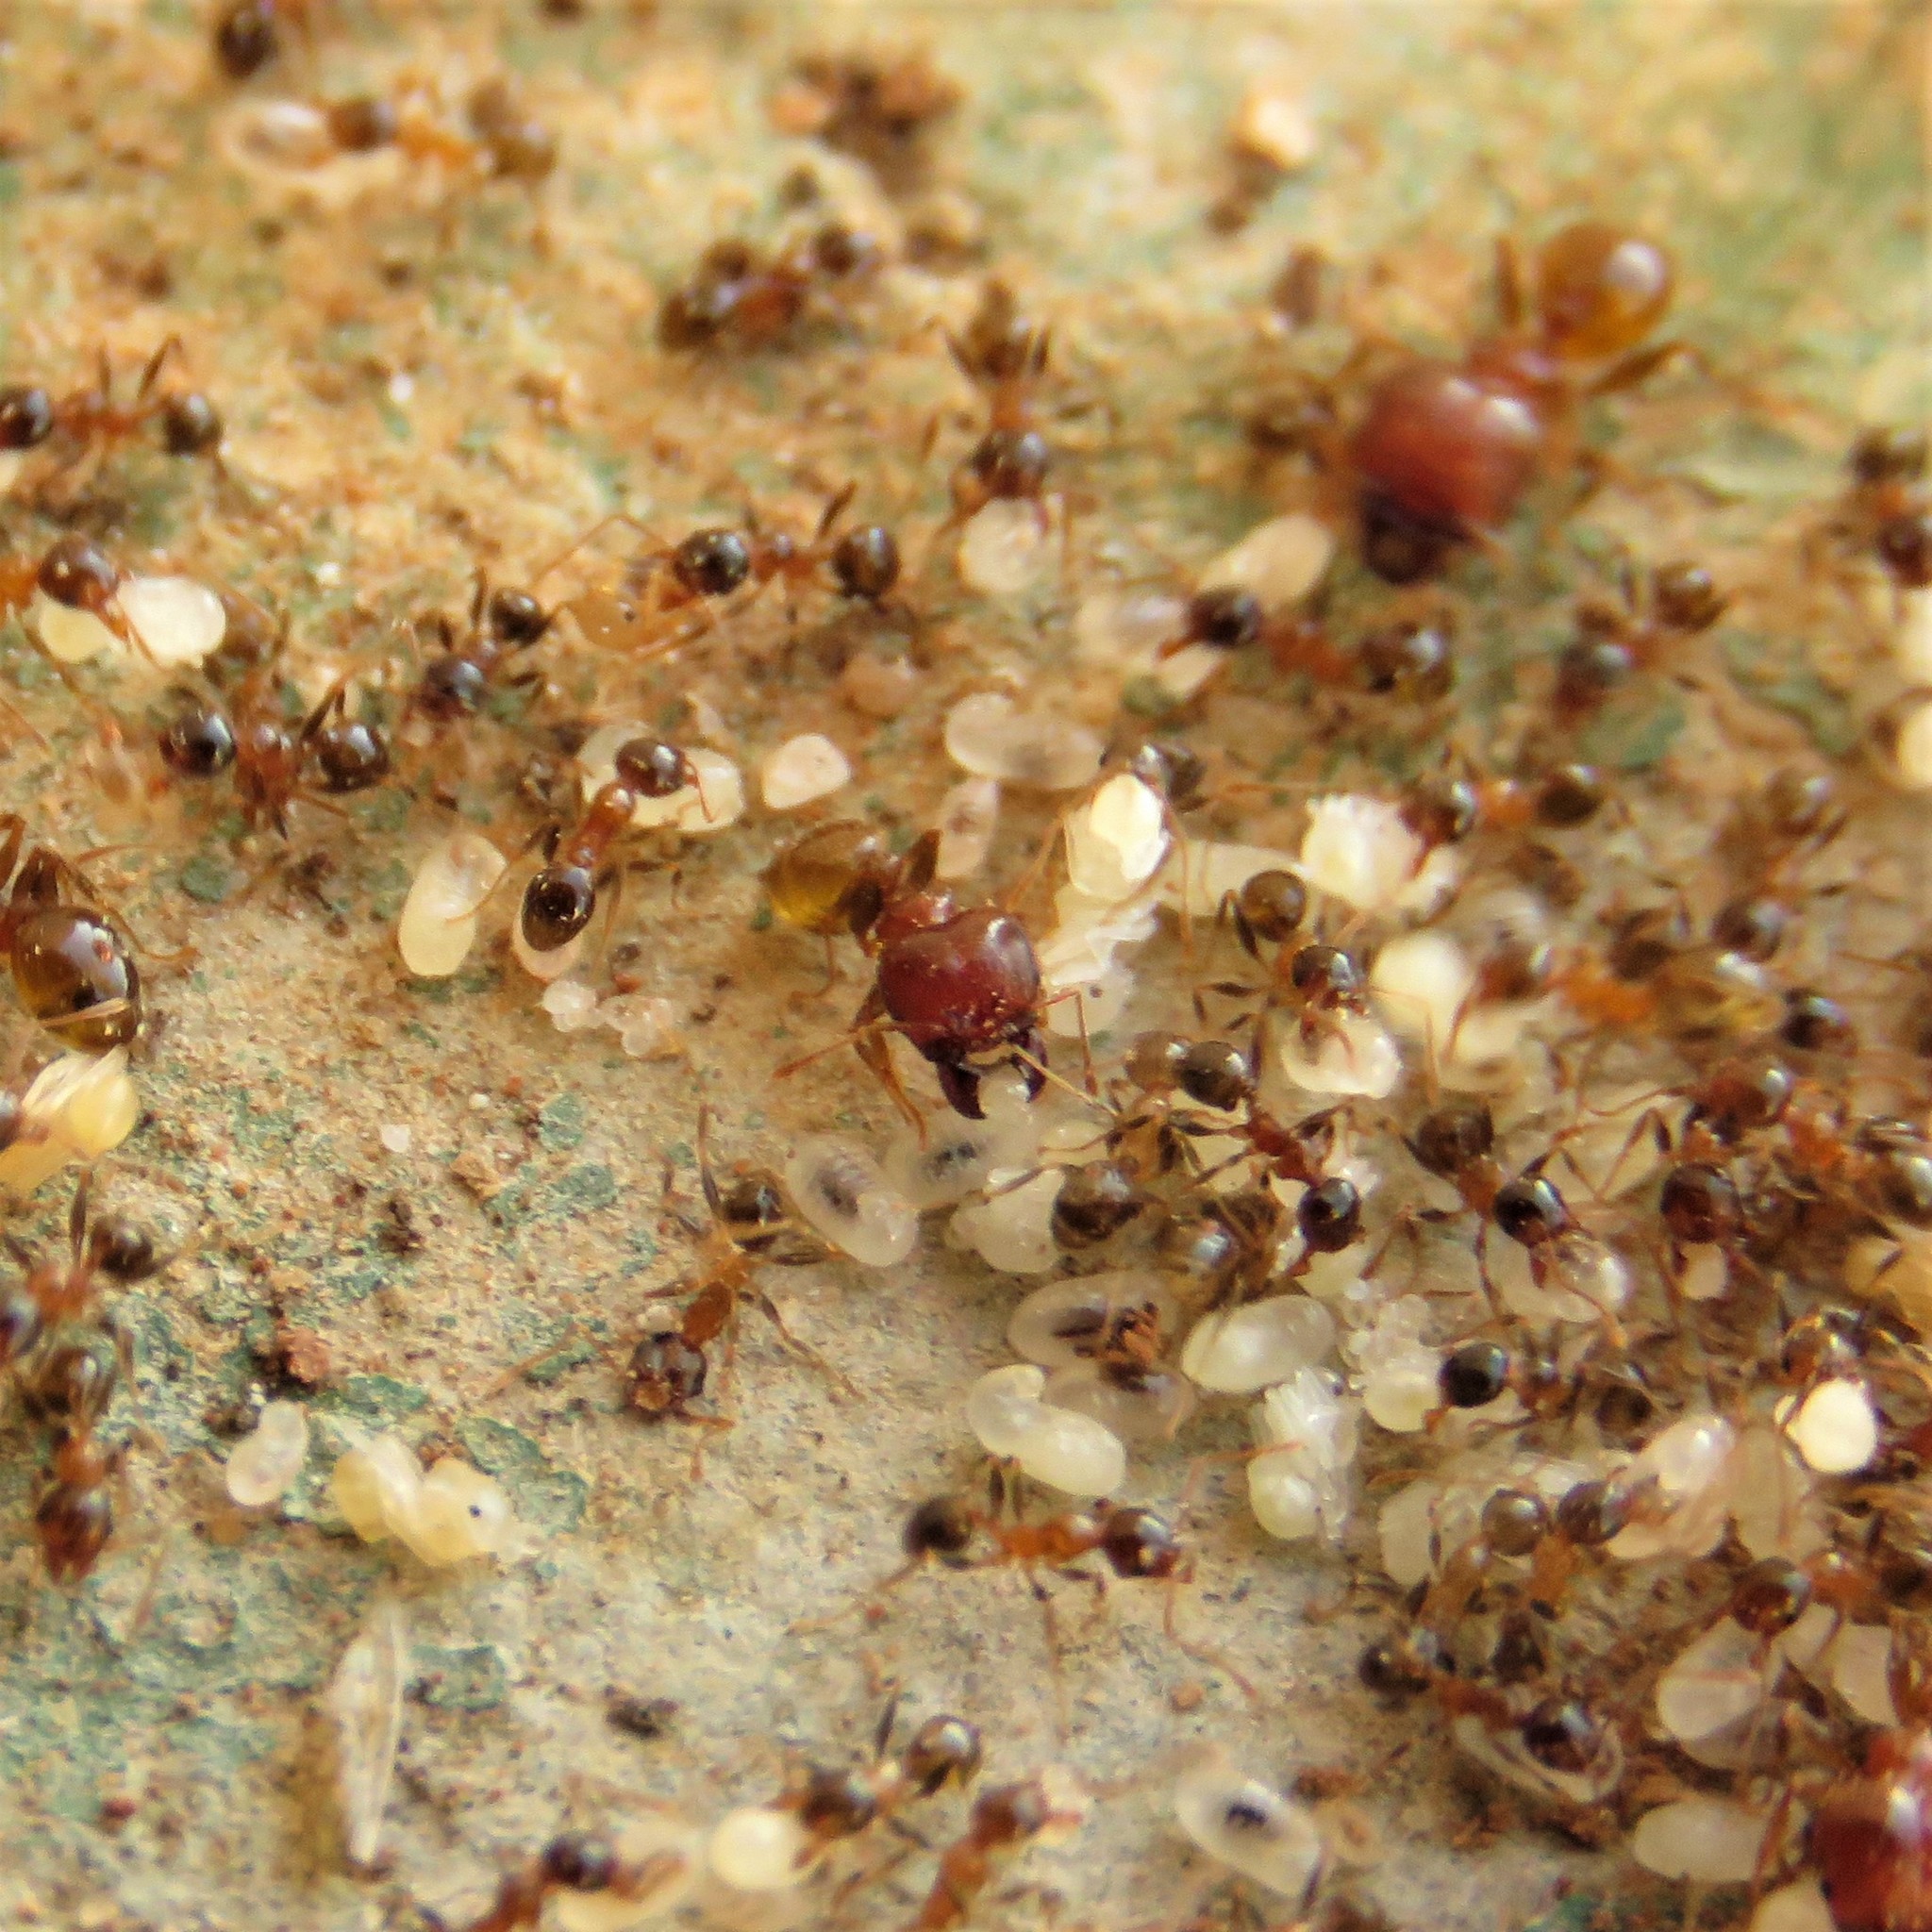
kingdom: Animalia
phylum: Arthropoda
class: Insecta
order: Hymenoptera
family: Formicidae
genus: Pheidole
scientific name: Pheidole megacephala
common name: Bigheaded ant
